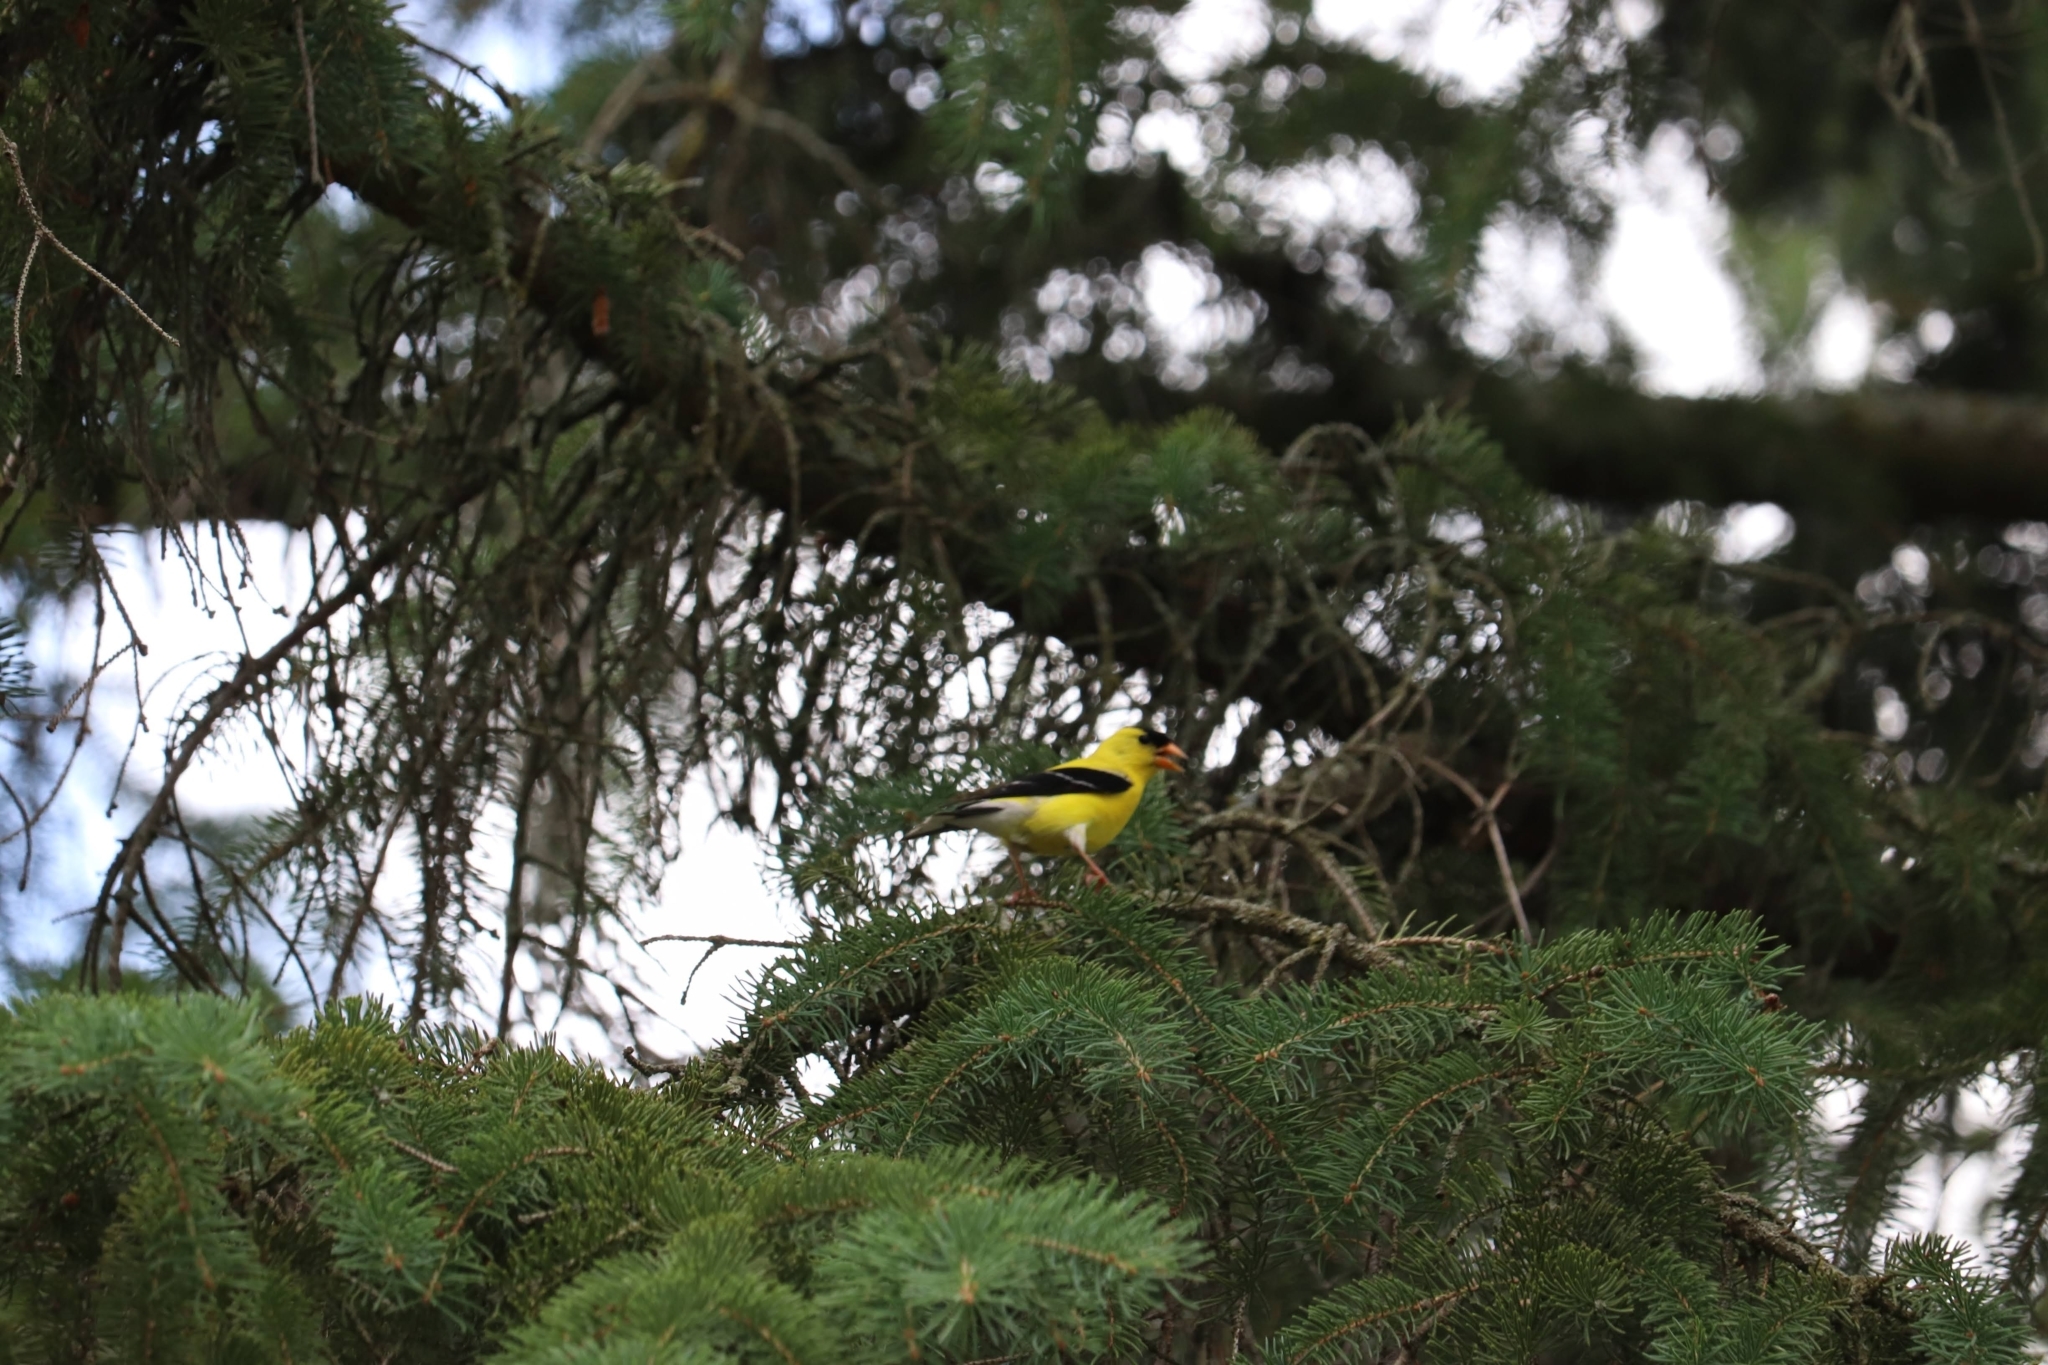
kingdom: Animalia
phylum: Chordata
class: Aves
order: Passeriformes
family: Fringillidae
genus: Spinus
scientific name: Spinus tristis
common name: American goldfinch
